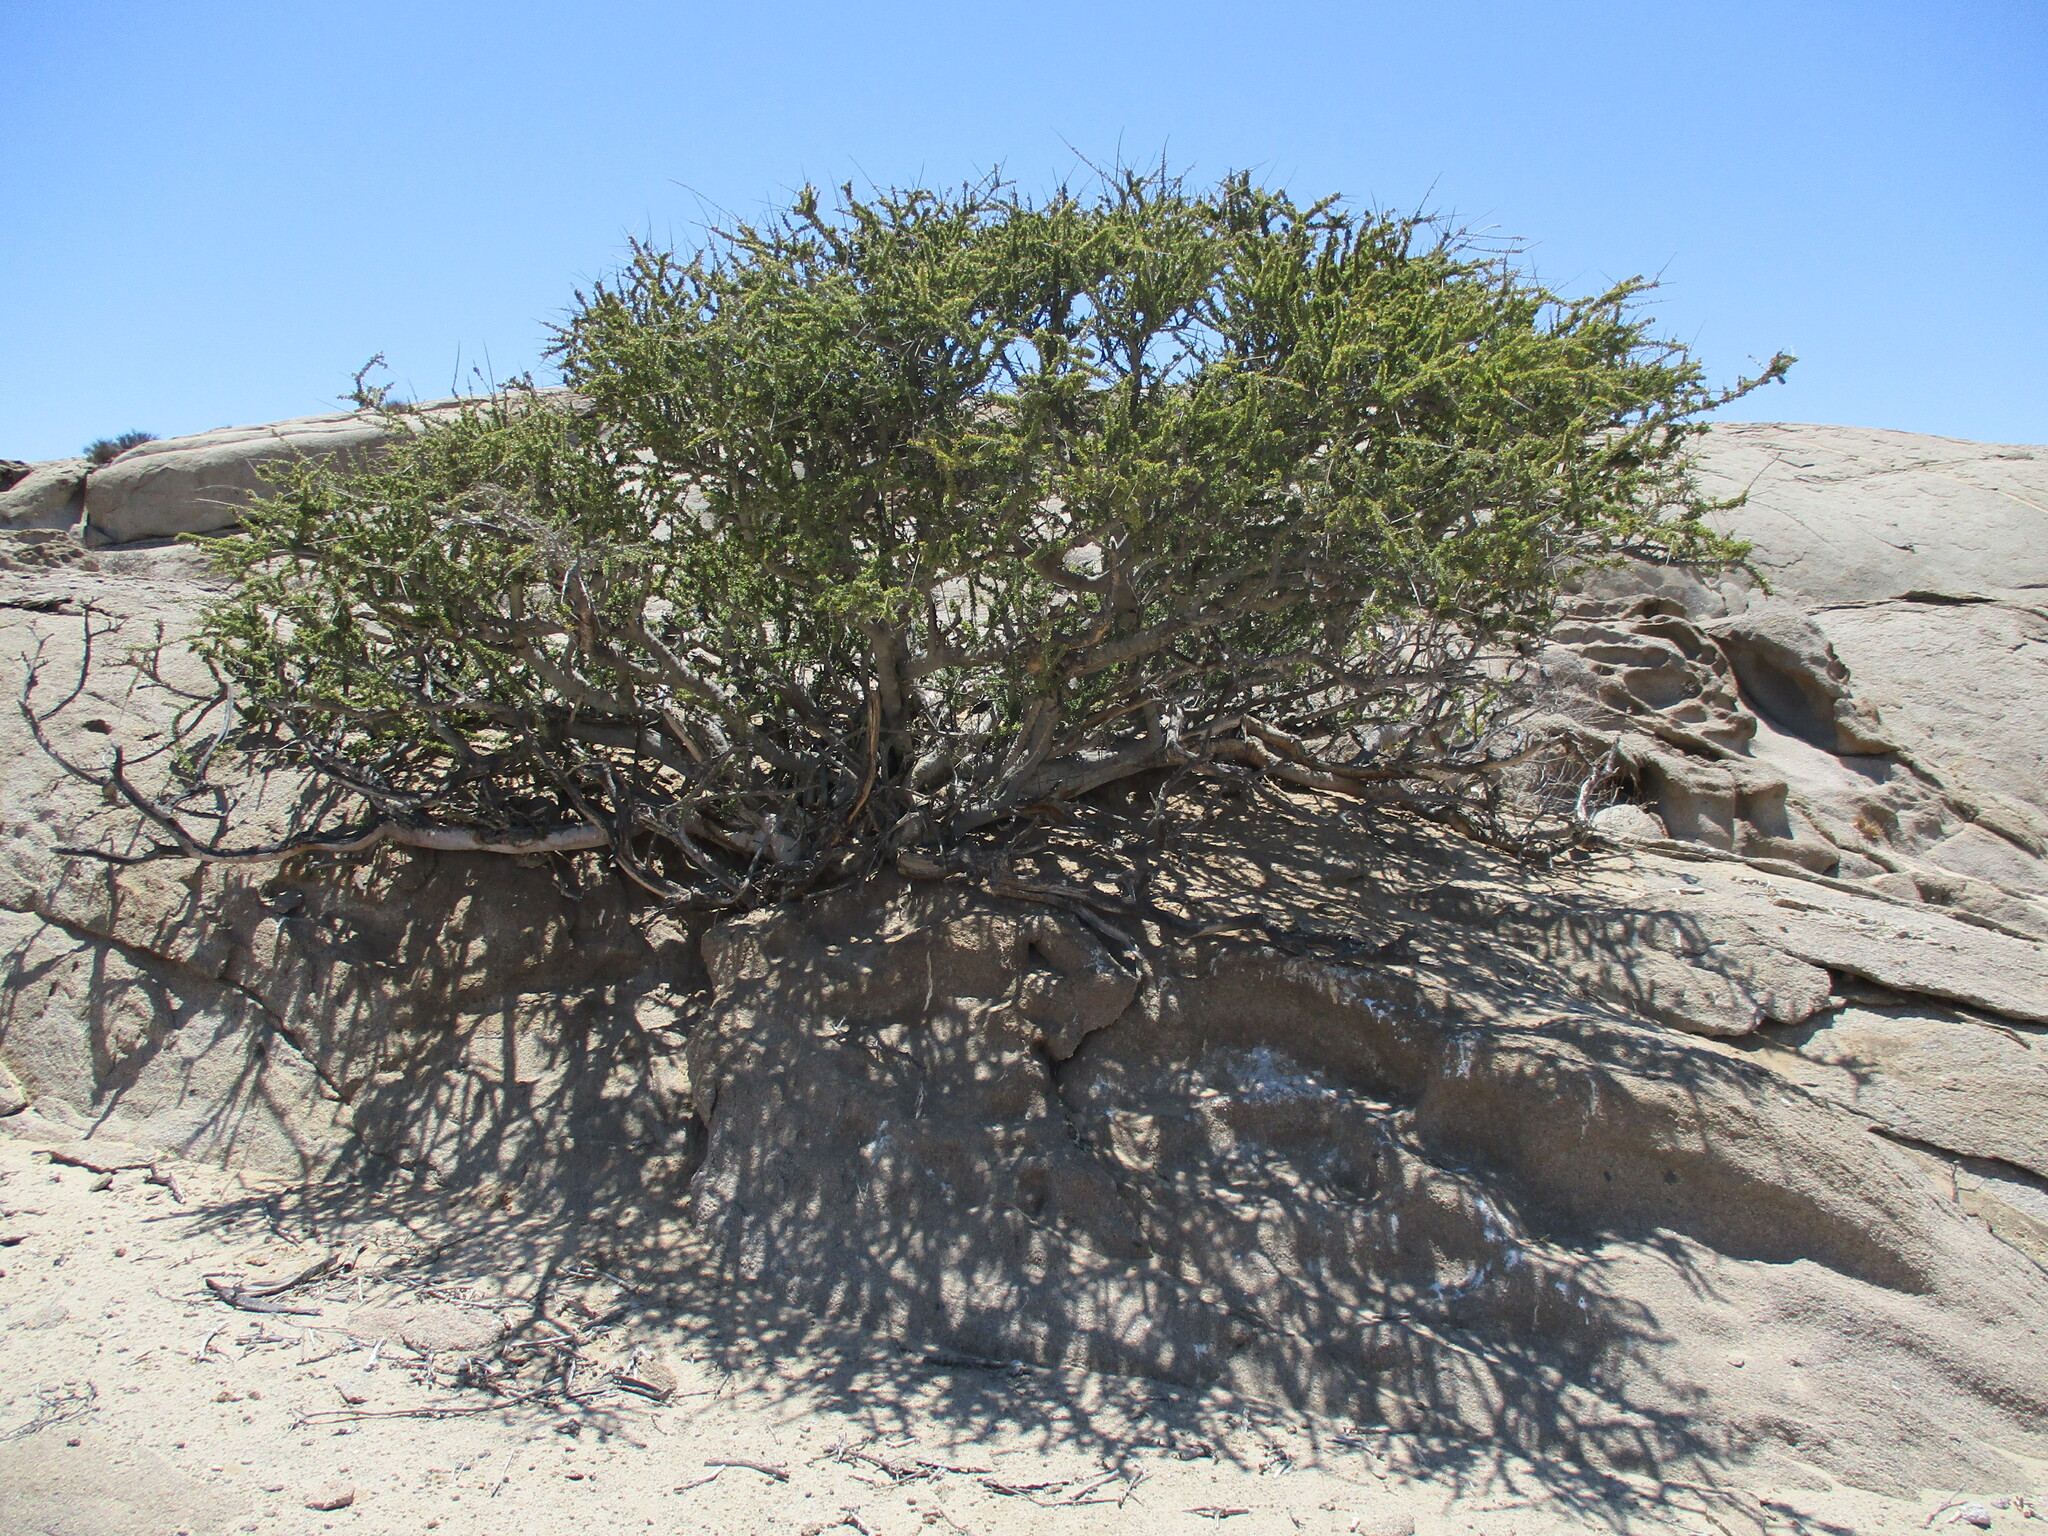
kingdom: Plantae
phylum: Tracheophyta
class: Magnoliopsida
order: Brassicales
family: Capparaceae
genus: Boscia
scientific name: Boscia foetida
